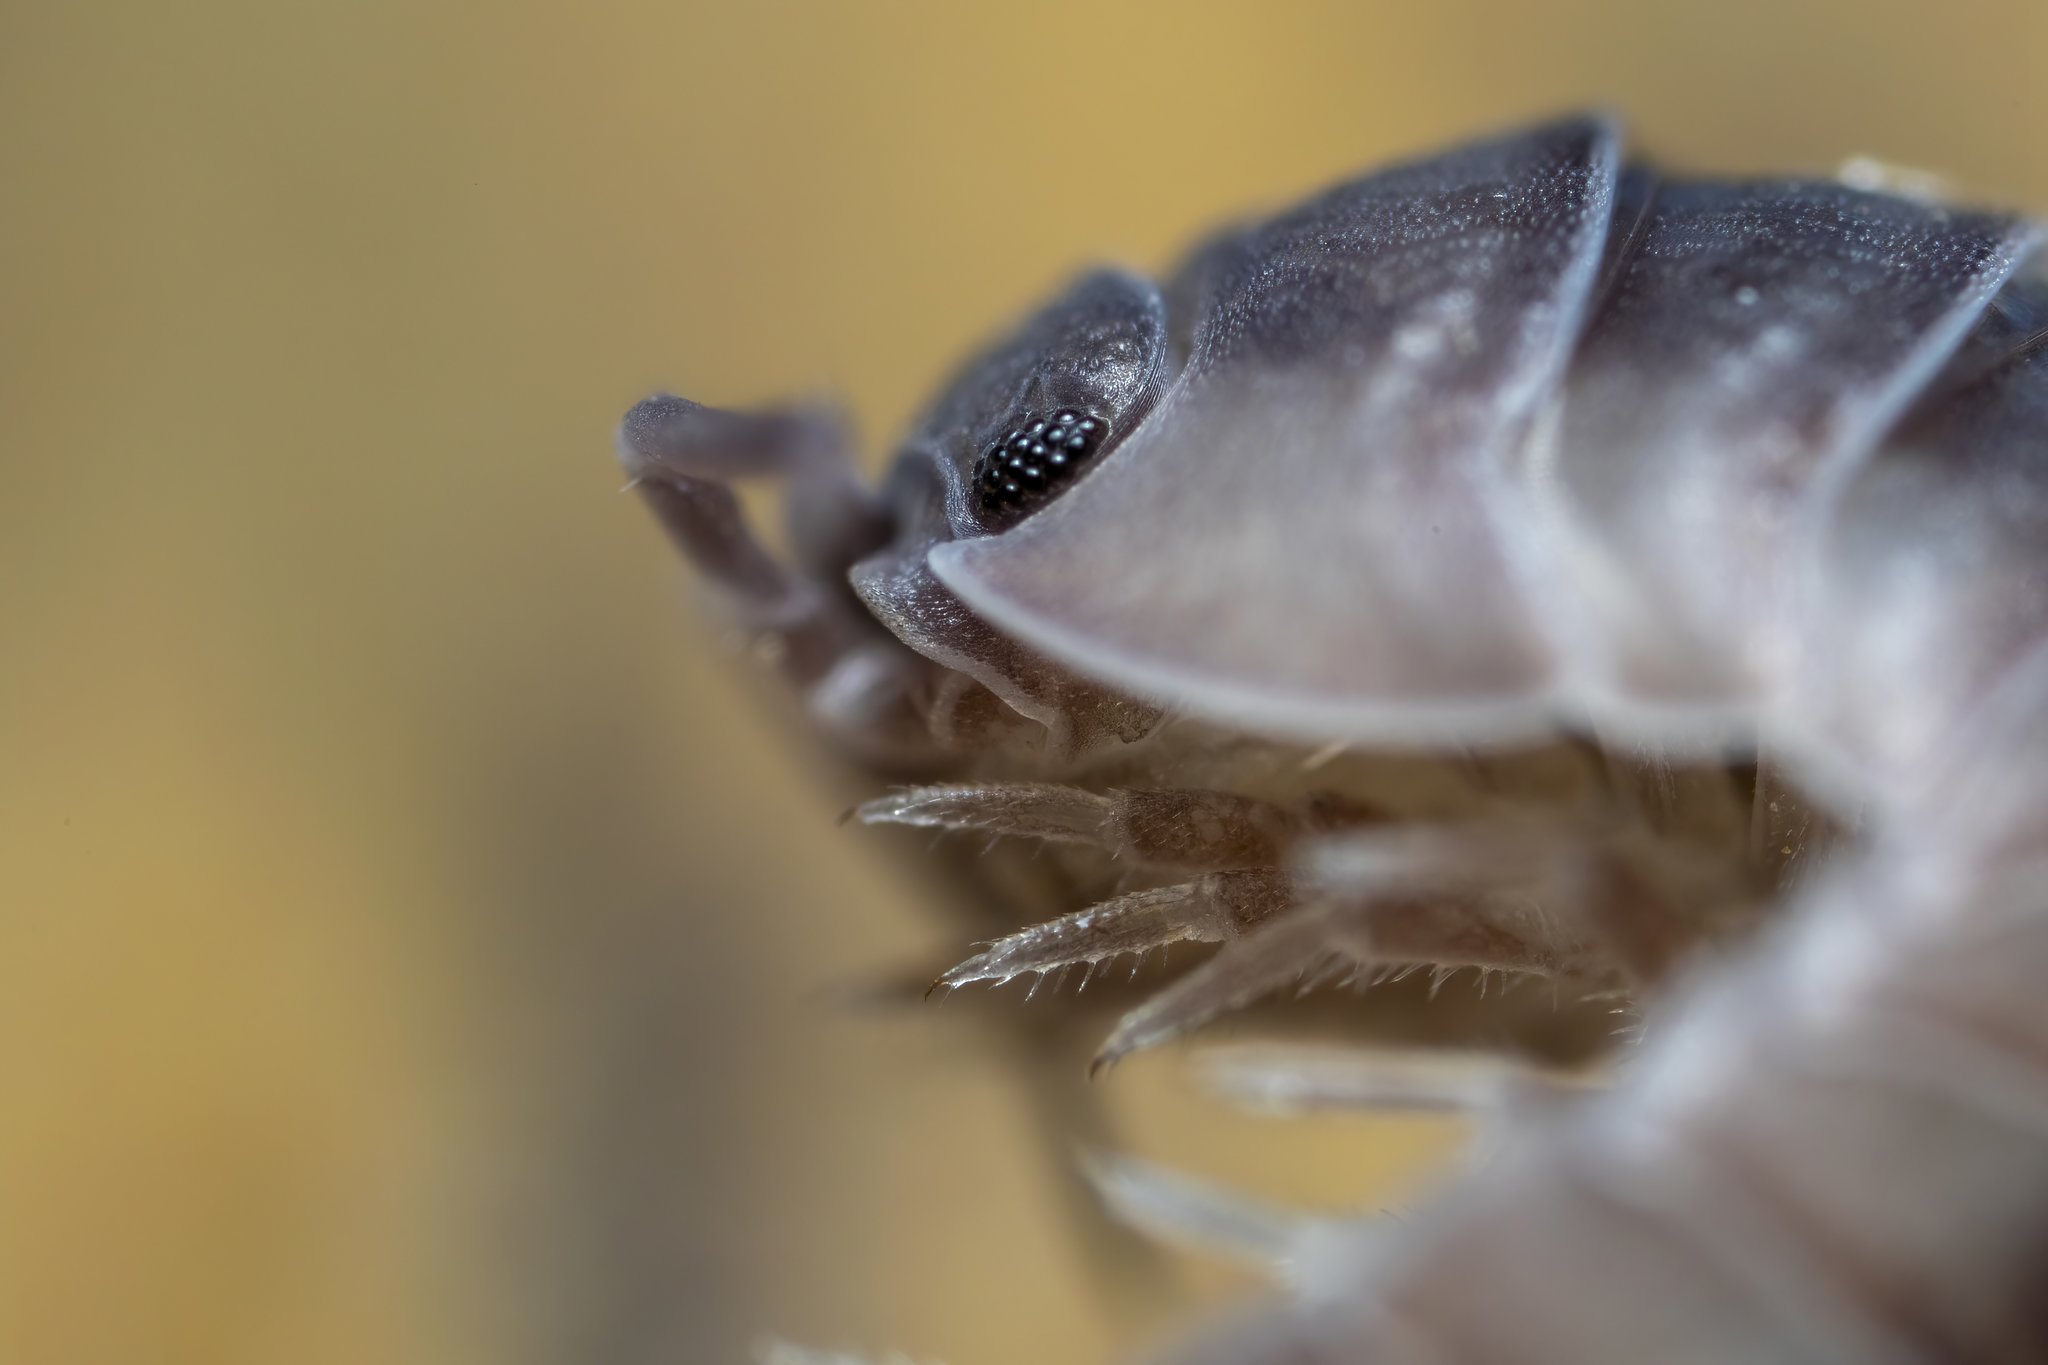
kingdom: Animalia
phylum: Arthropoda
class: Malacostraca
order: Isopoda
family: Armadillidiidae
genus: Armadillidium
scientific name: Armadillidium nasatum
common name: Isopod
